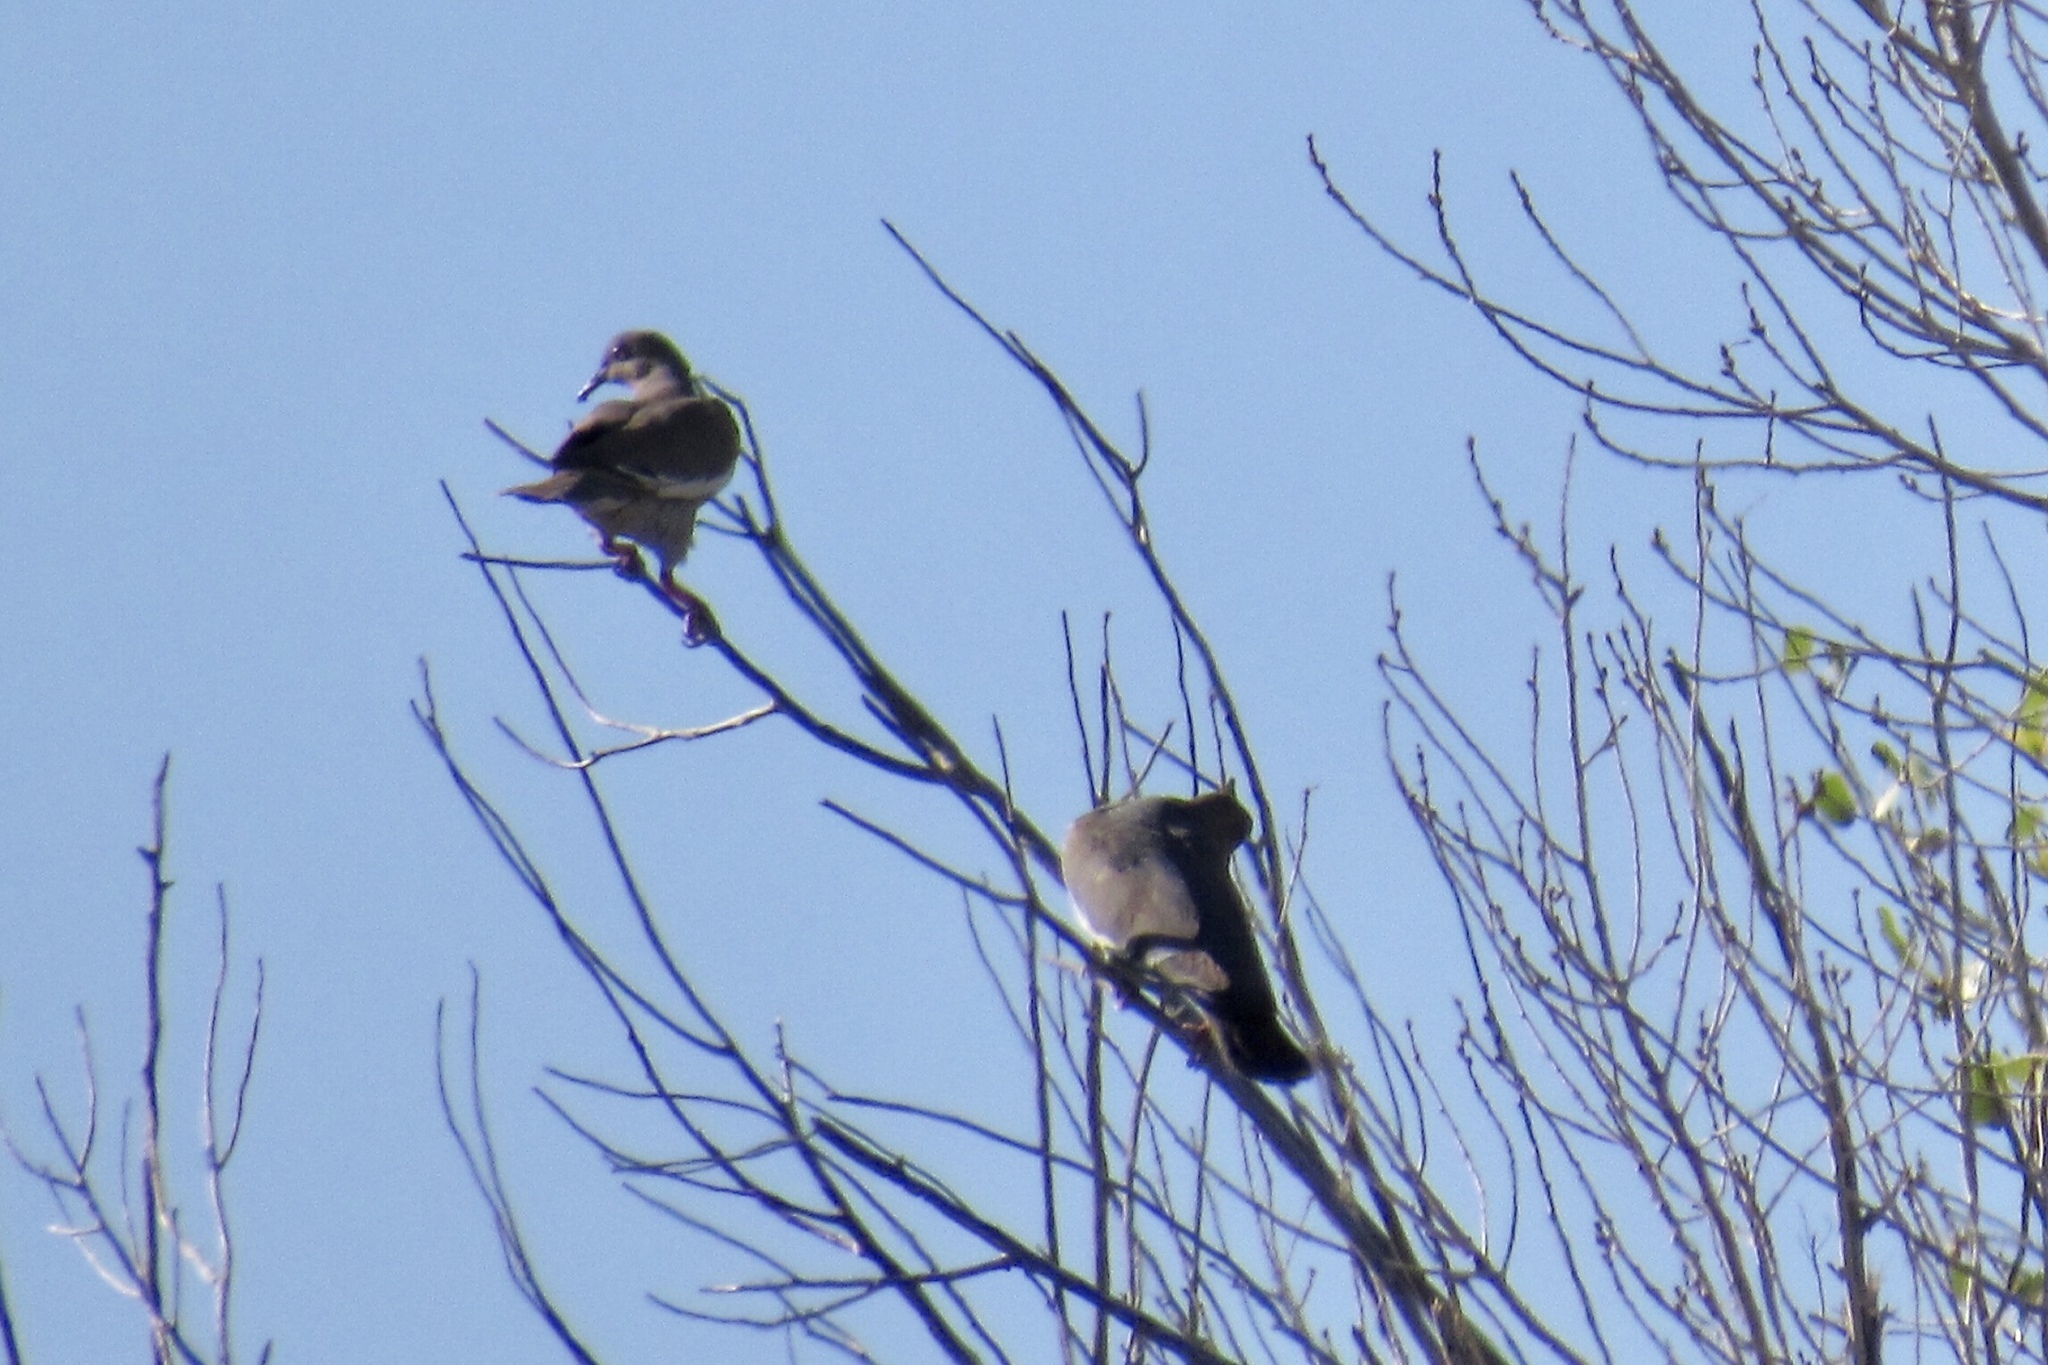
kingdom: Animalia
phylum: Chordata
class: Aves
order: Columbiformes
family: Columbidae
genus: Zenaida
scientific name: Zenaida asiatica
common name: White-winged dove
